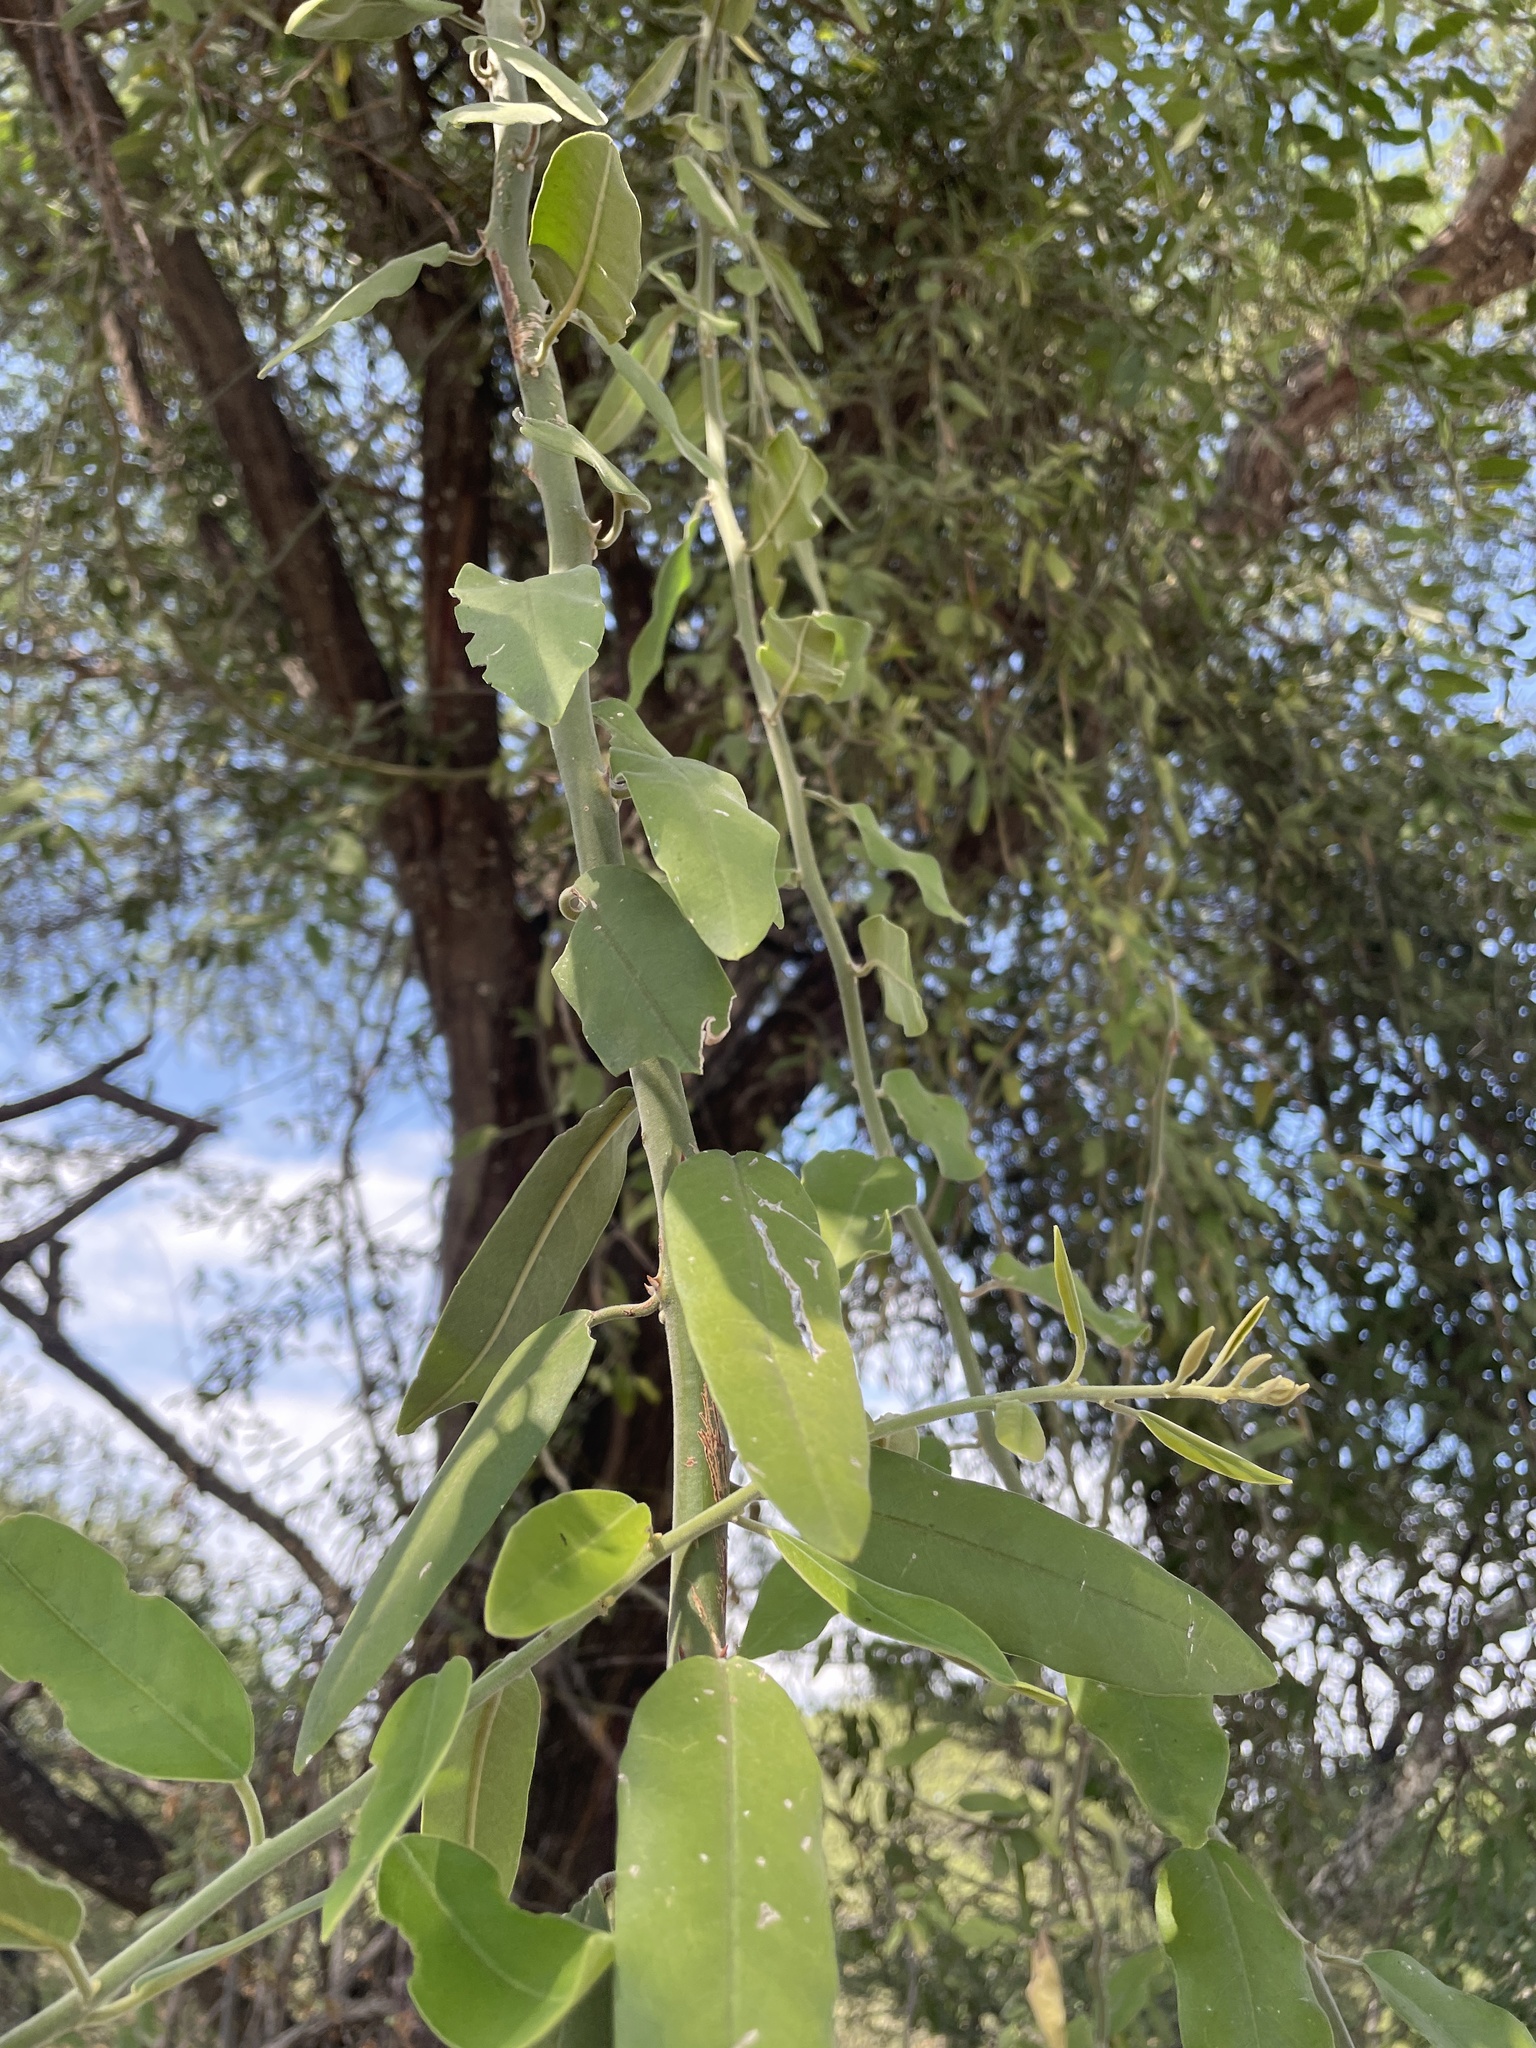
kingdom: Plantae
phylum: Tracheophyta
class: Magnoliopsida
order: Brassicales
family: Capparaceae
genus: Capparis
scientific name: Capparis tomentosa
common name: African caper
